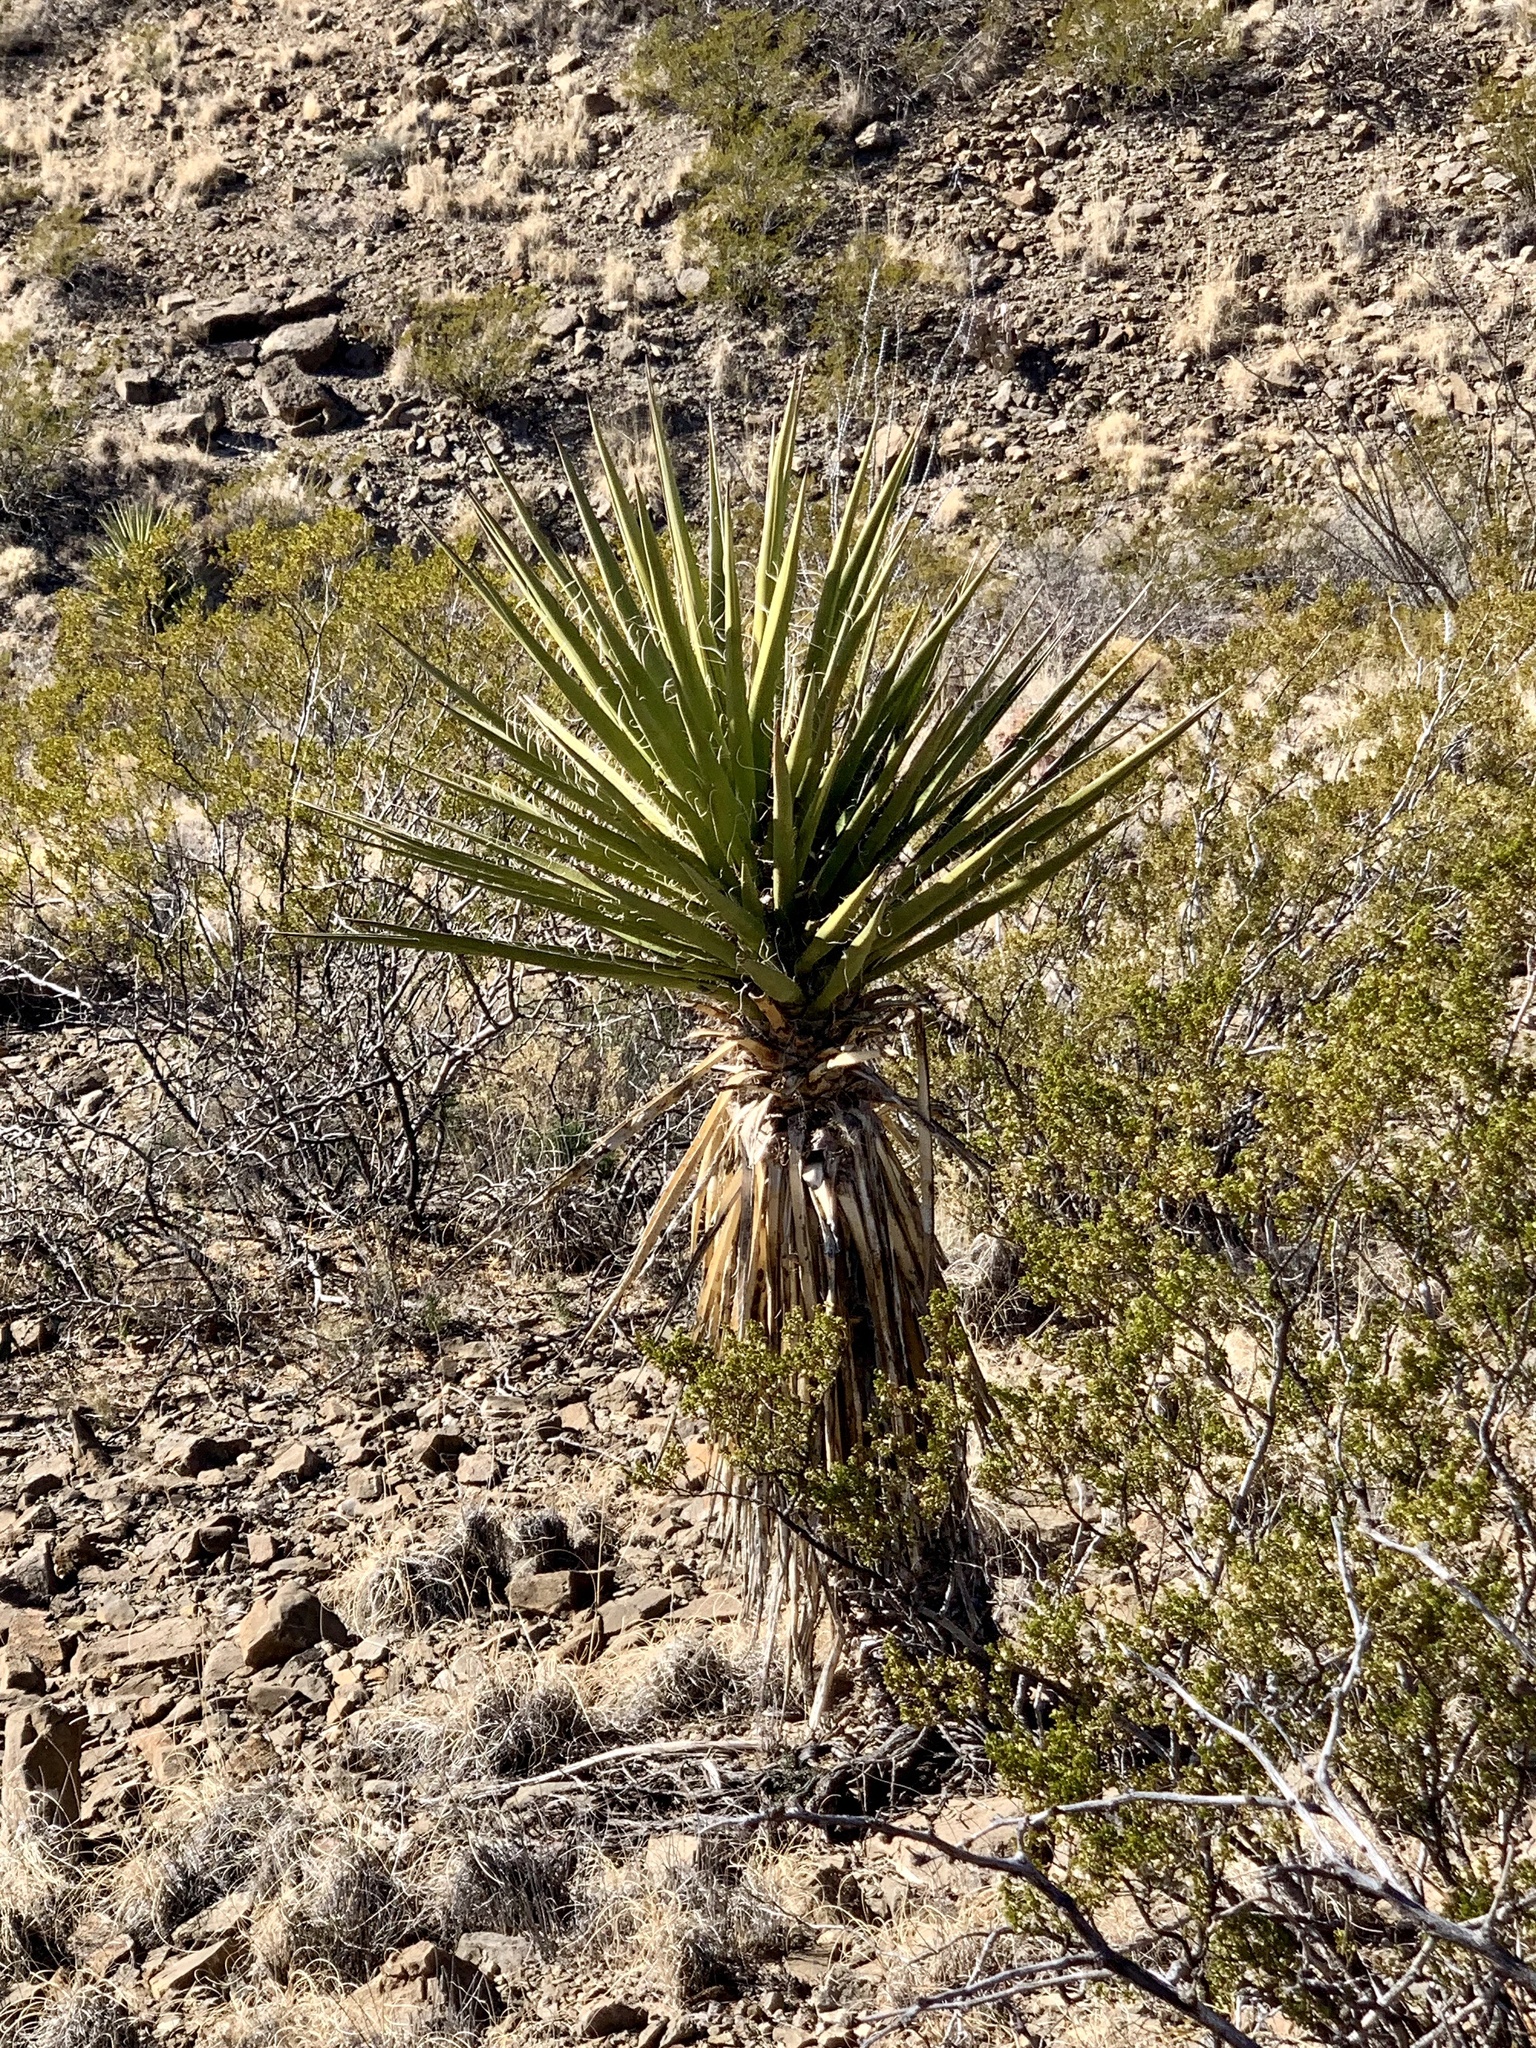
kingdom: Plantae
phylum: Tracheophyta
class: Liliopsida
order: Asparagales
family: Asparagaceae
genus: Yucca
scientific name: Yucca treculiana
